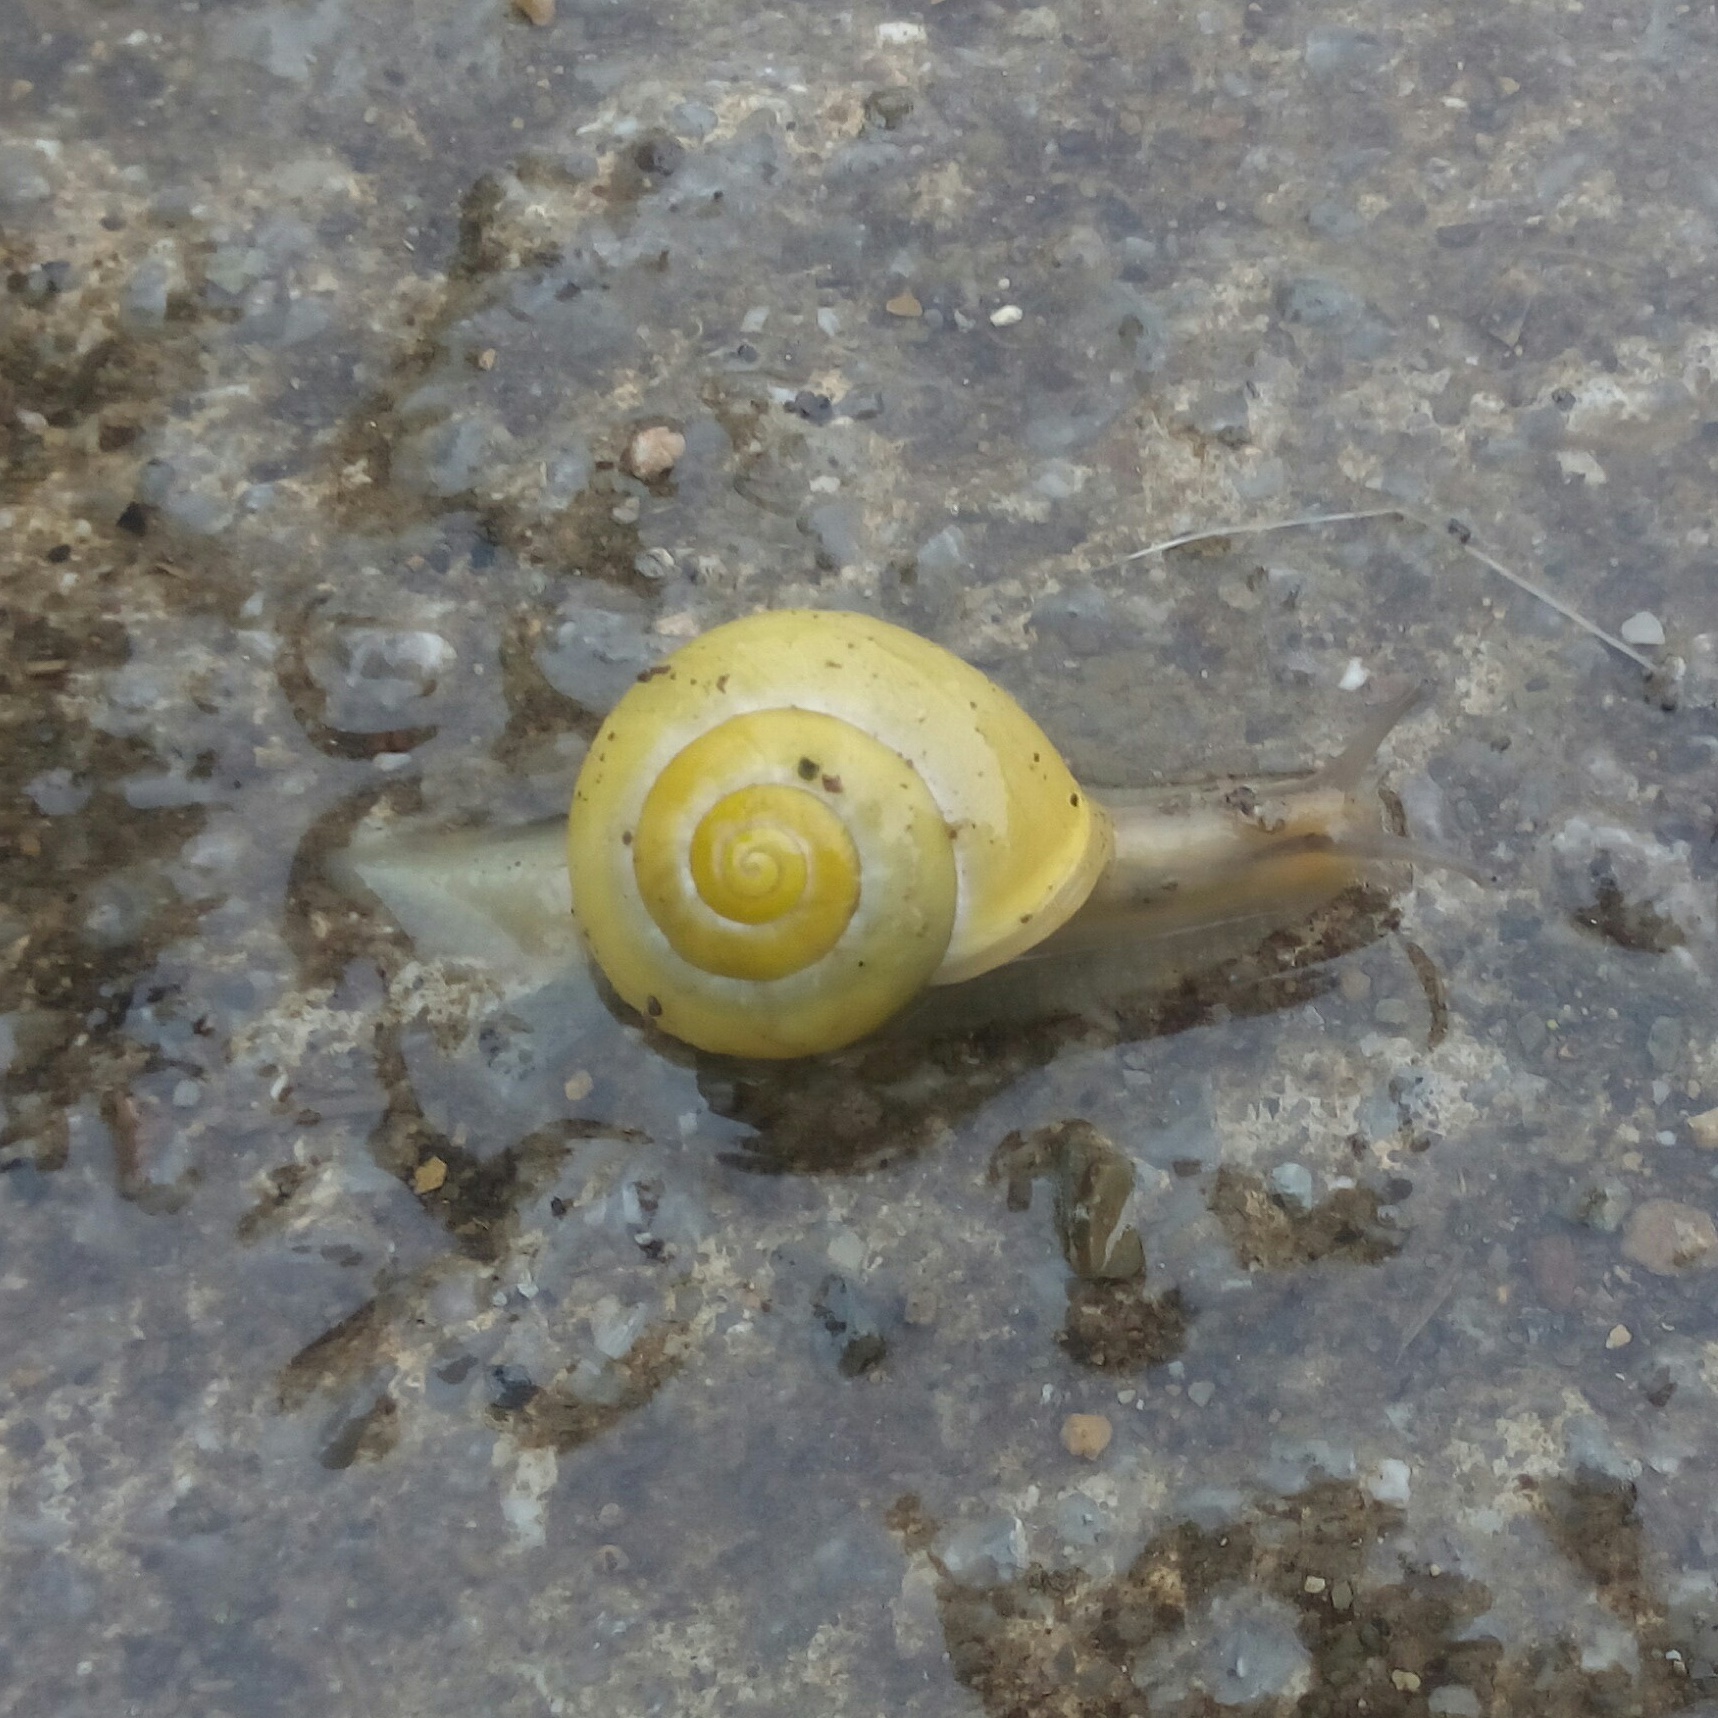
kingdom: Animalia
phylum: Mollusca
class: Gastropoda
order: Stylommatophora
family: Helicidae
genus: Cepaea
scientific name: Cepaea hortensis
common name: White-lip gardensnail
